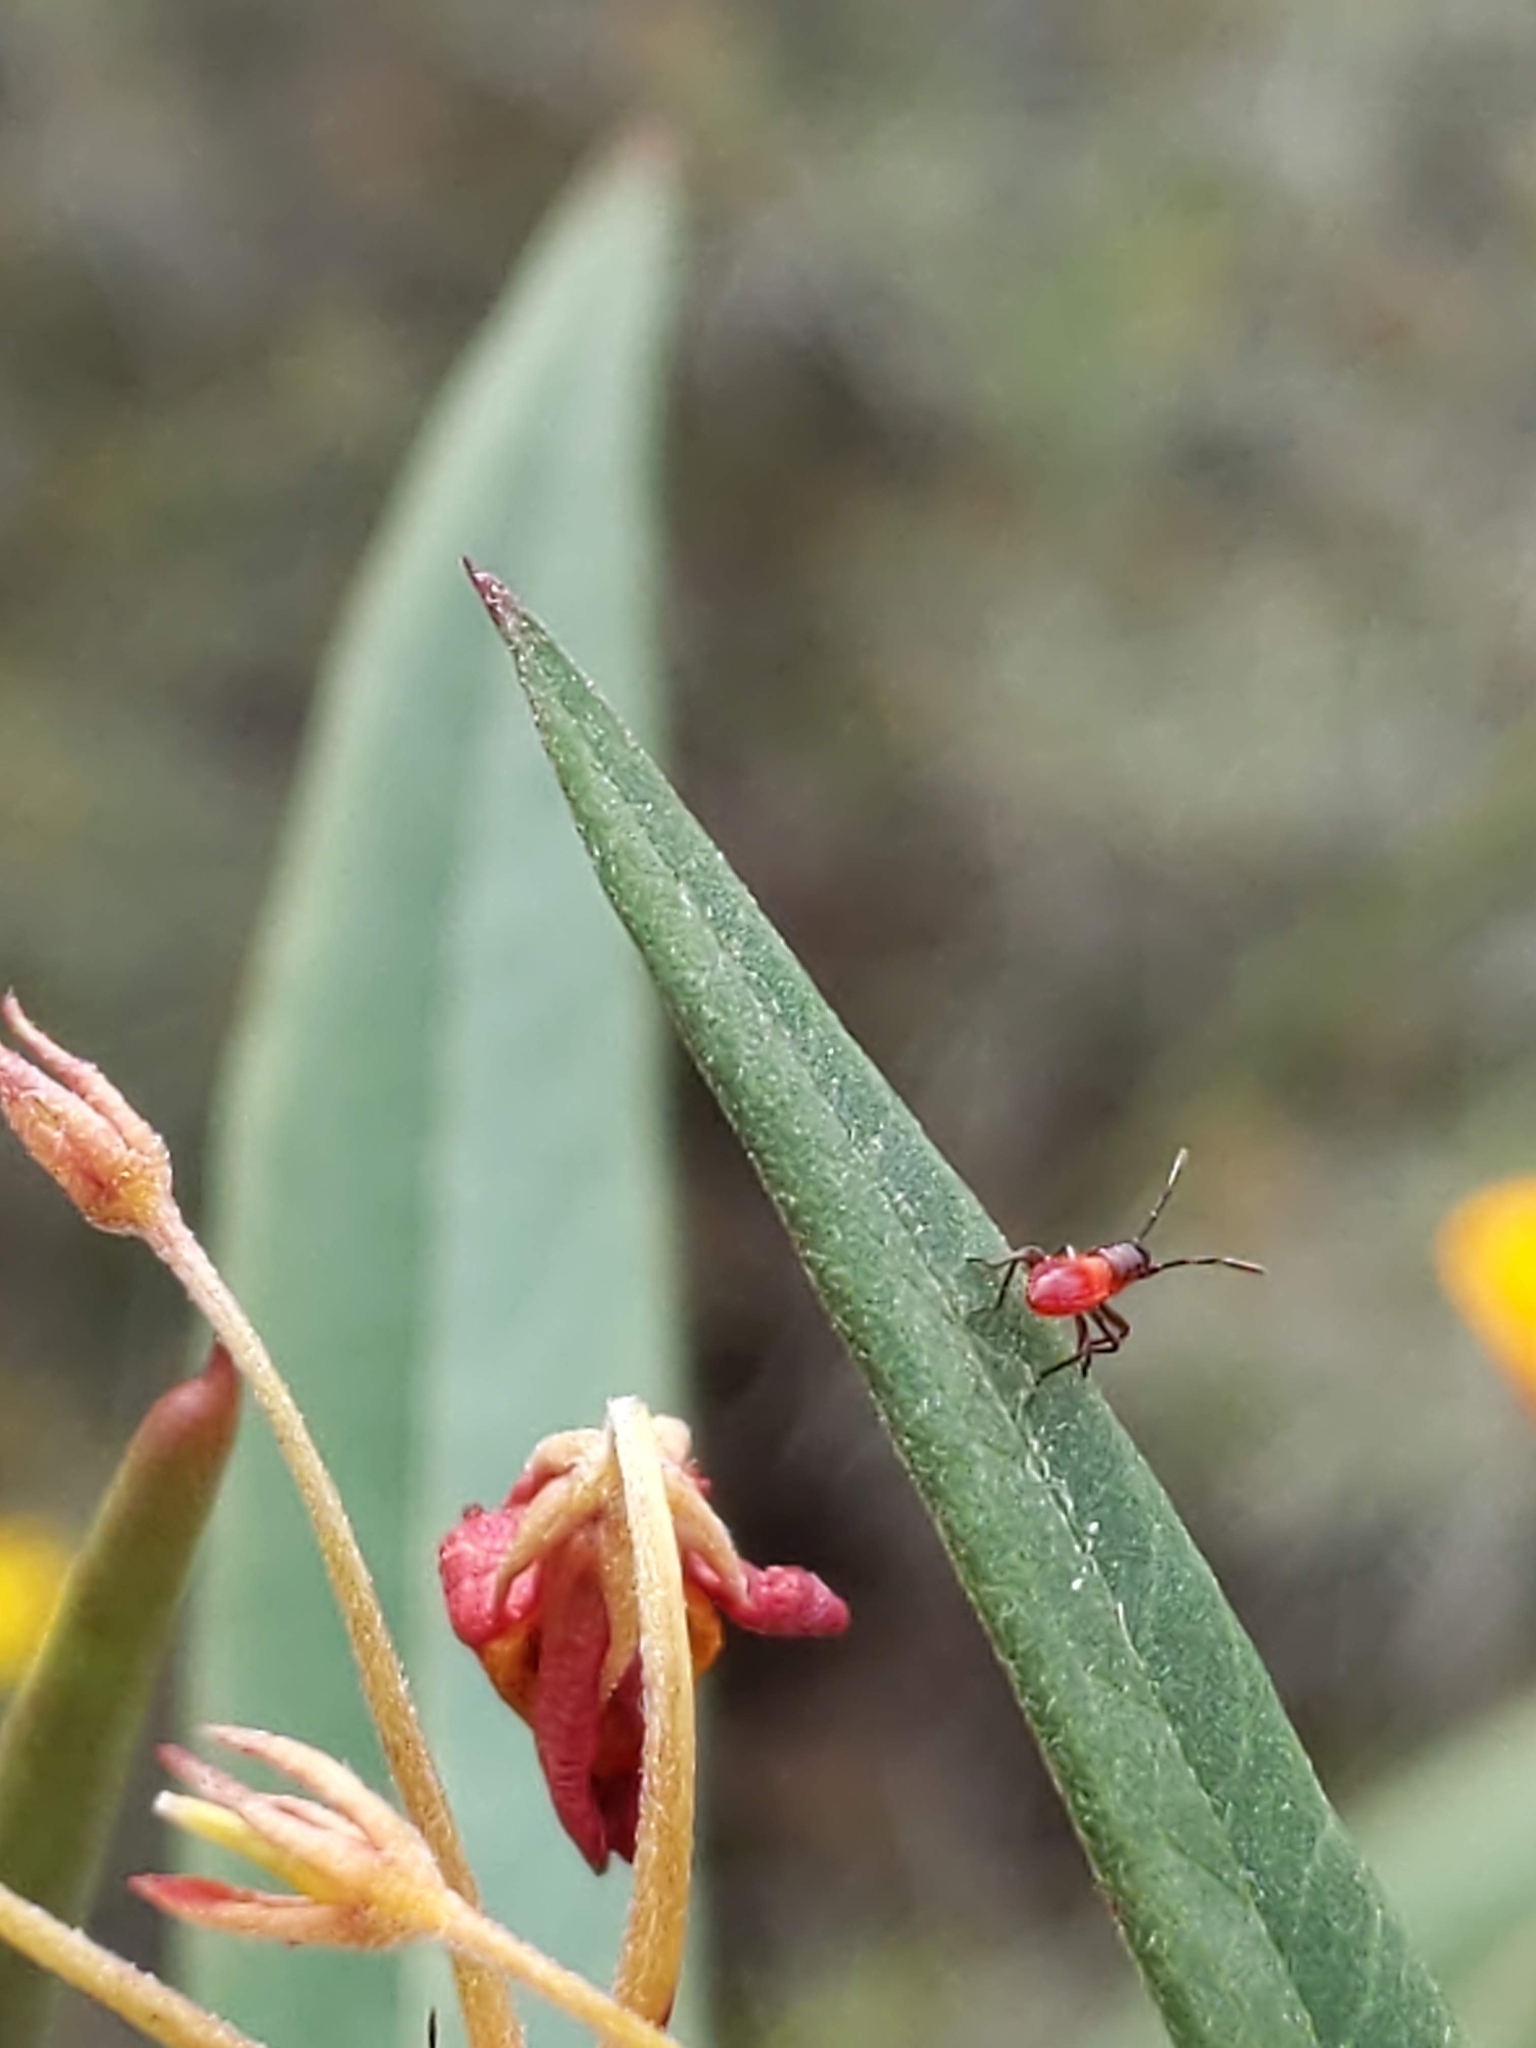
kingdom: Animalia
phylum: Arthropoda
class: Insecta
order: Hemiptera
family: Lygaeidae
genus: Oncopeltus
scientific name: Oncopeltus fasciatus
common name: Large milkweed bug
